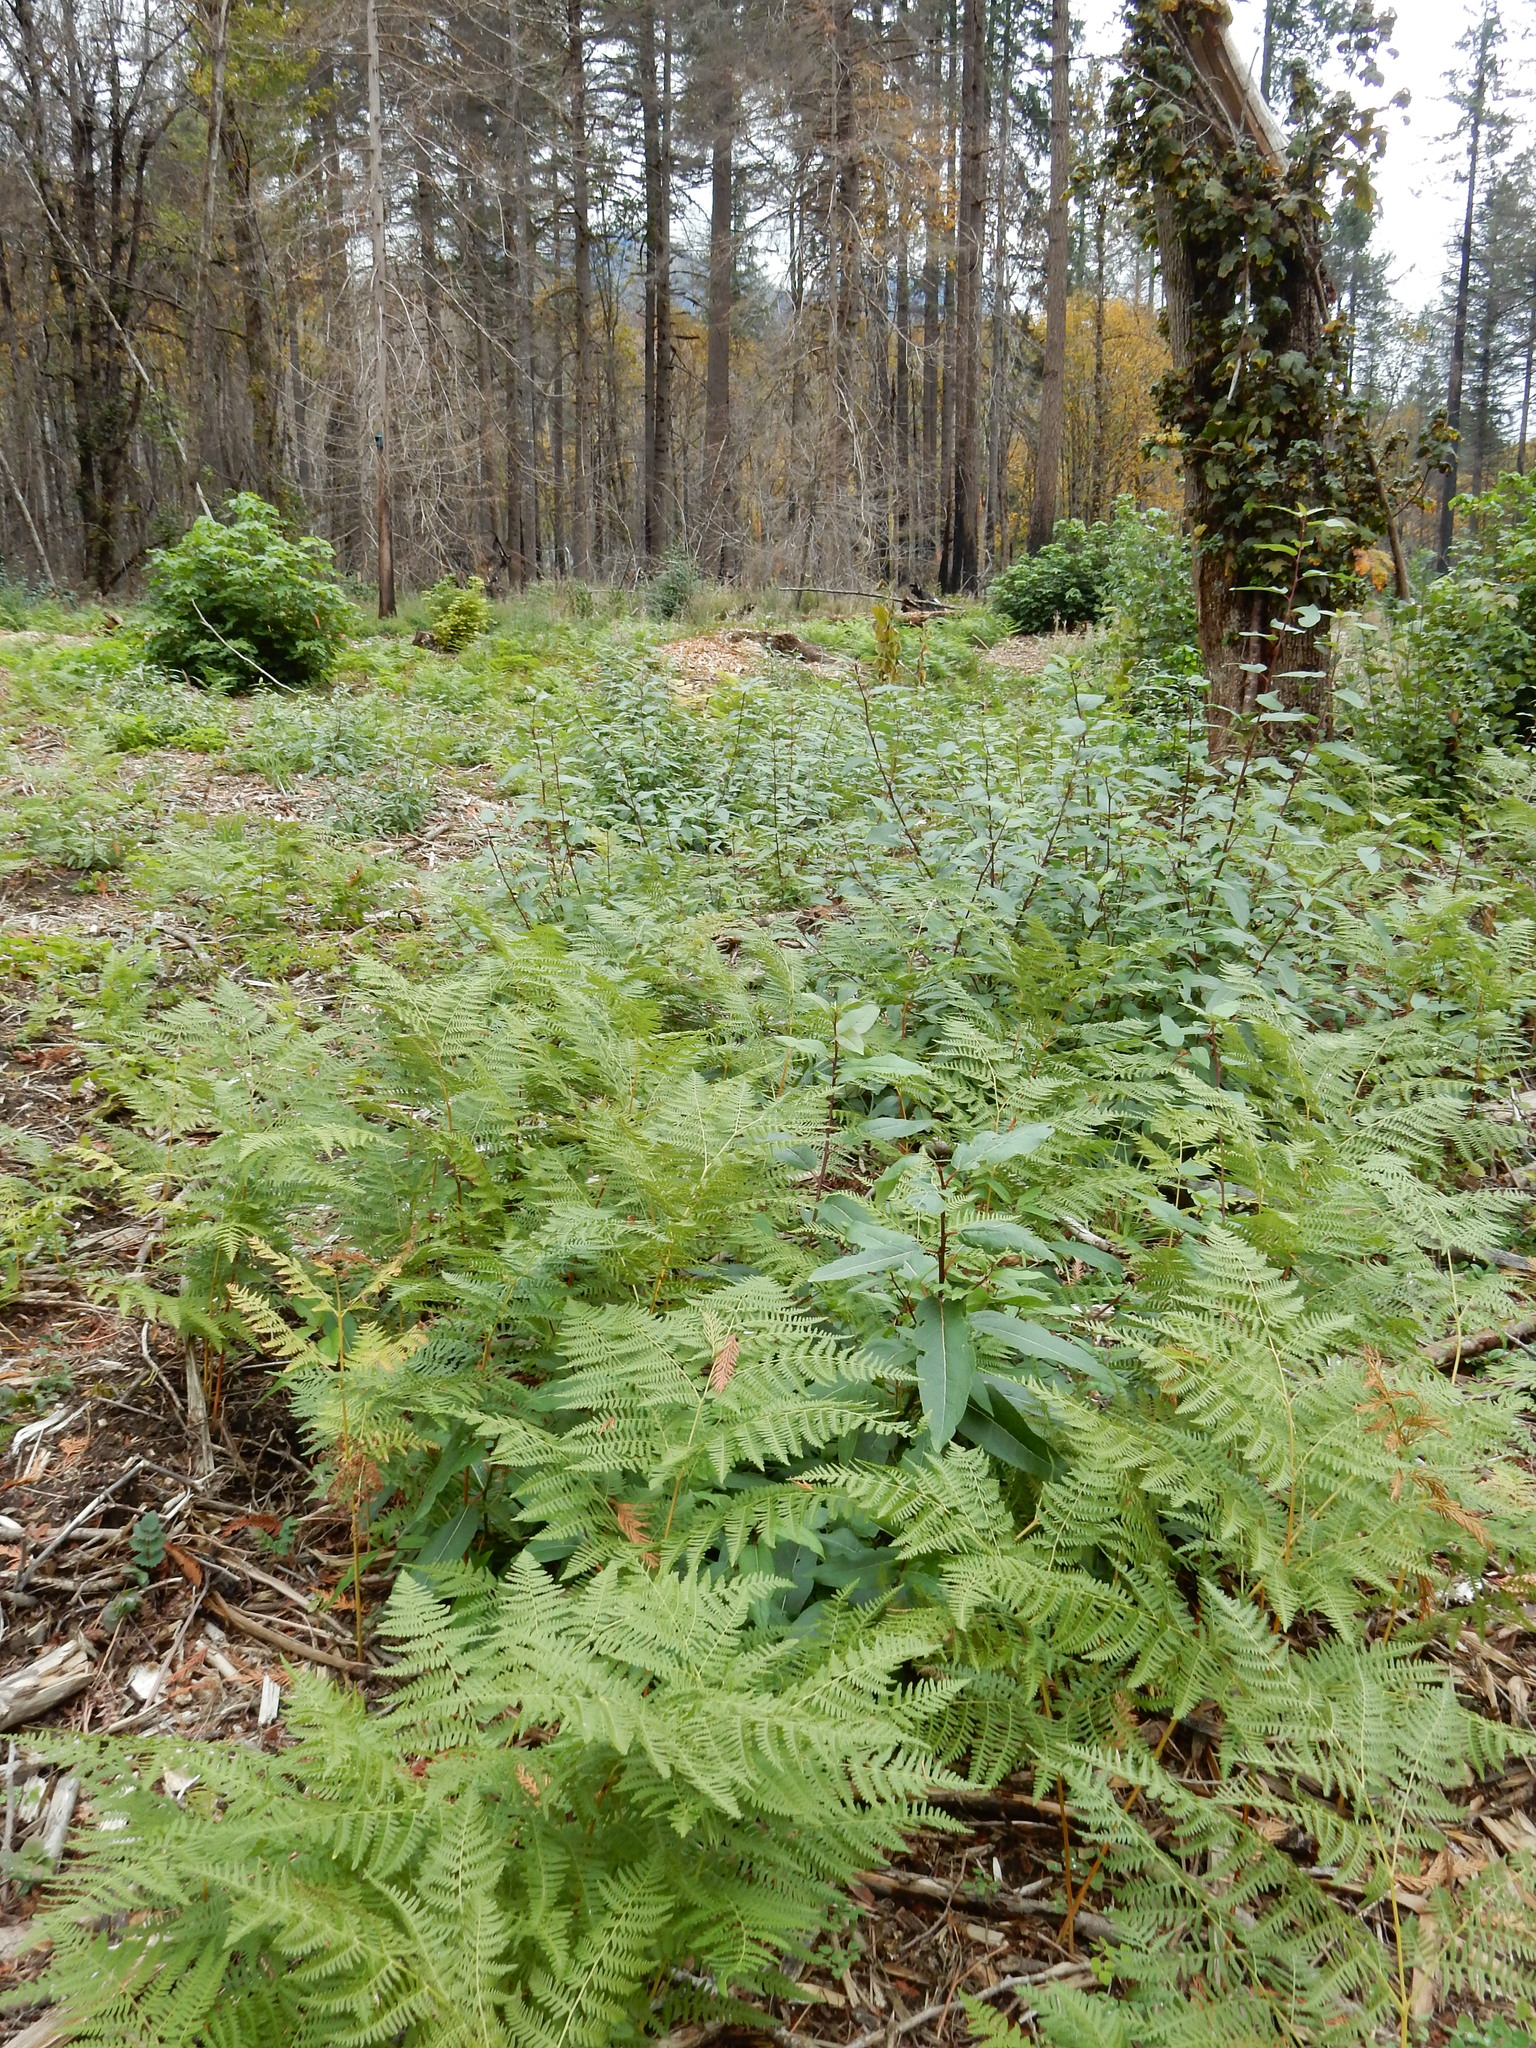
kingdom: Plantae
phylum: Tracheophyta
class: Polypodiopsida
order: Polypodiales
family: Dennstaedtiaceae
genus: Pteridium
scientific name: Pteridium aquilinum
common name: Bracken
